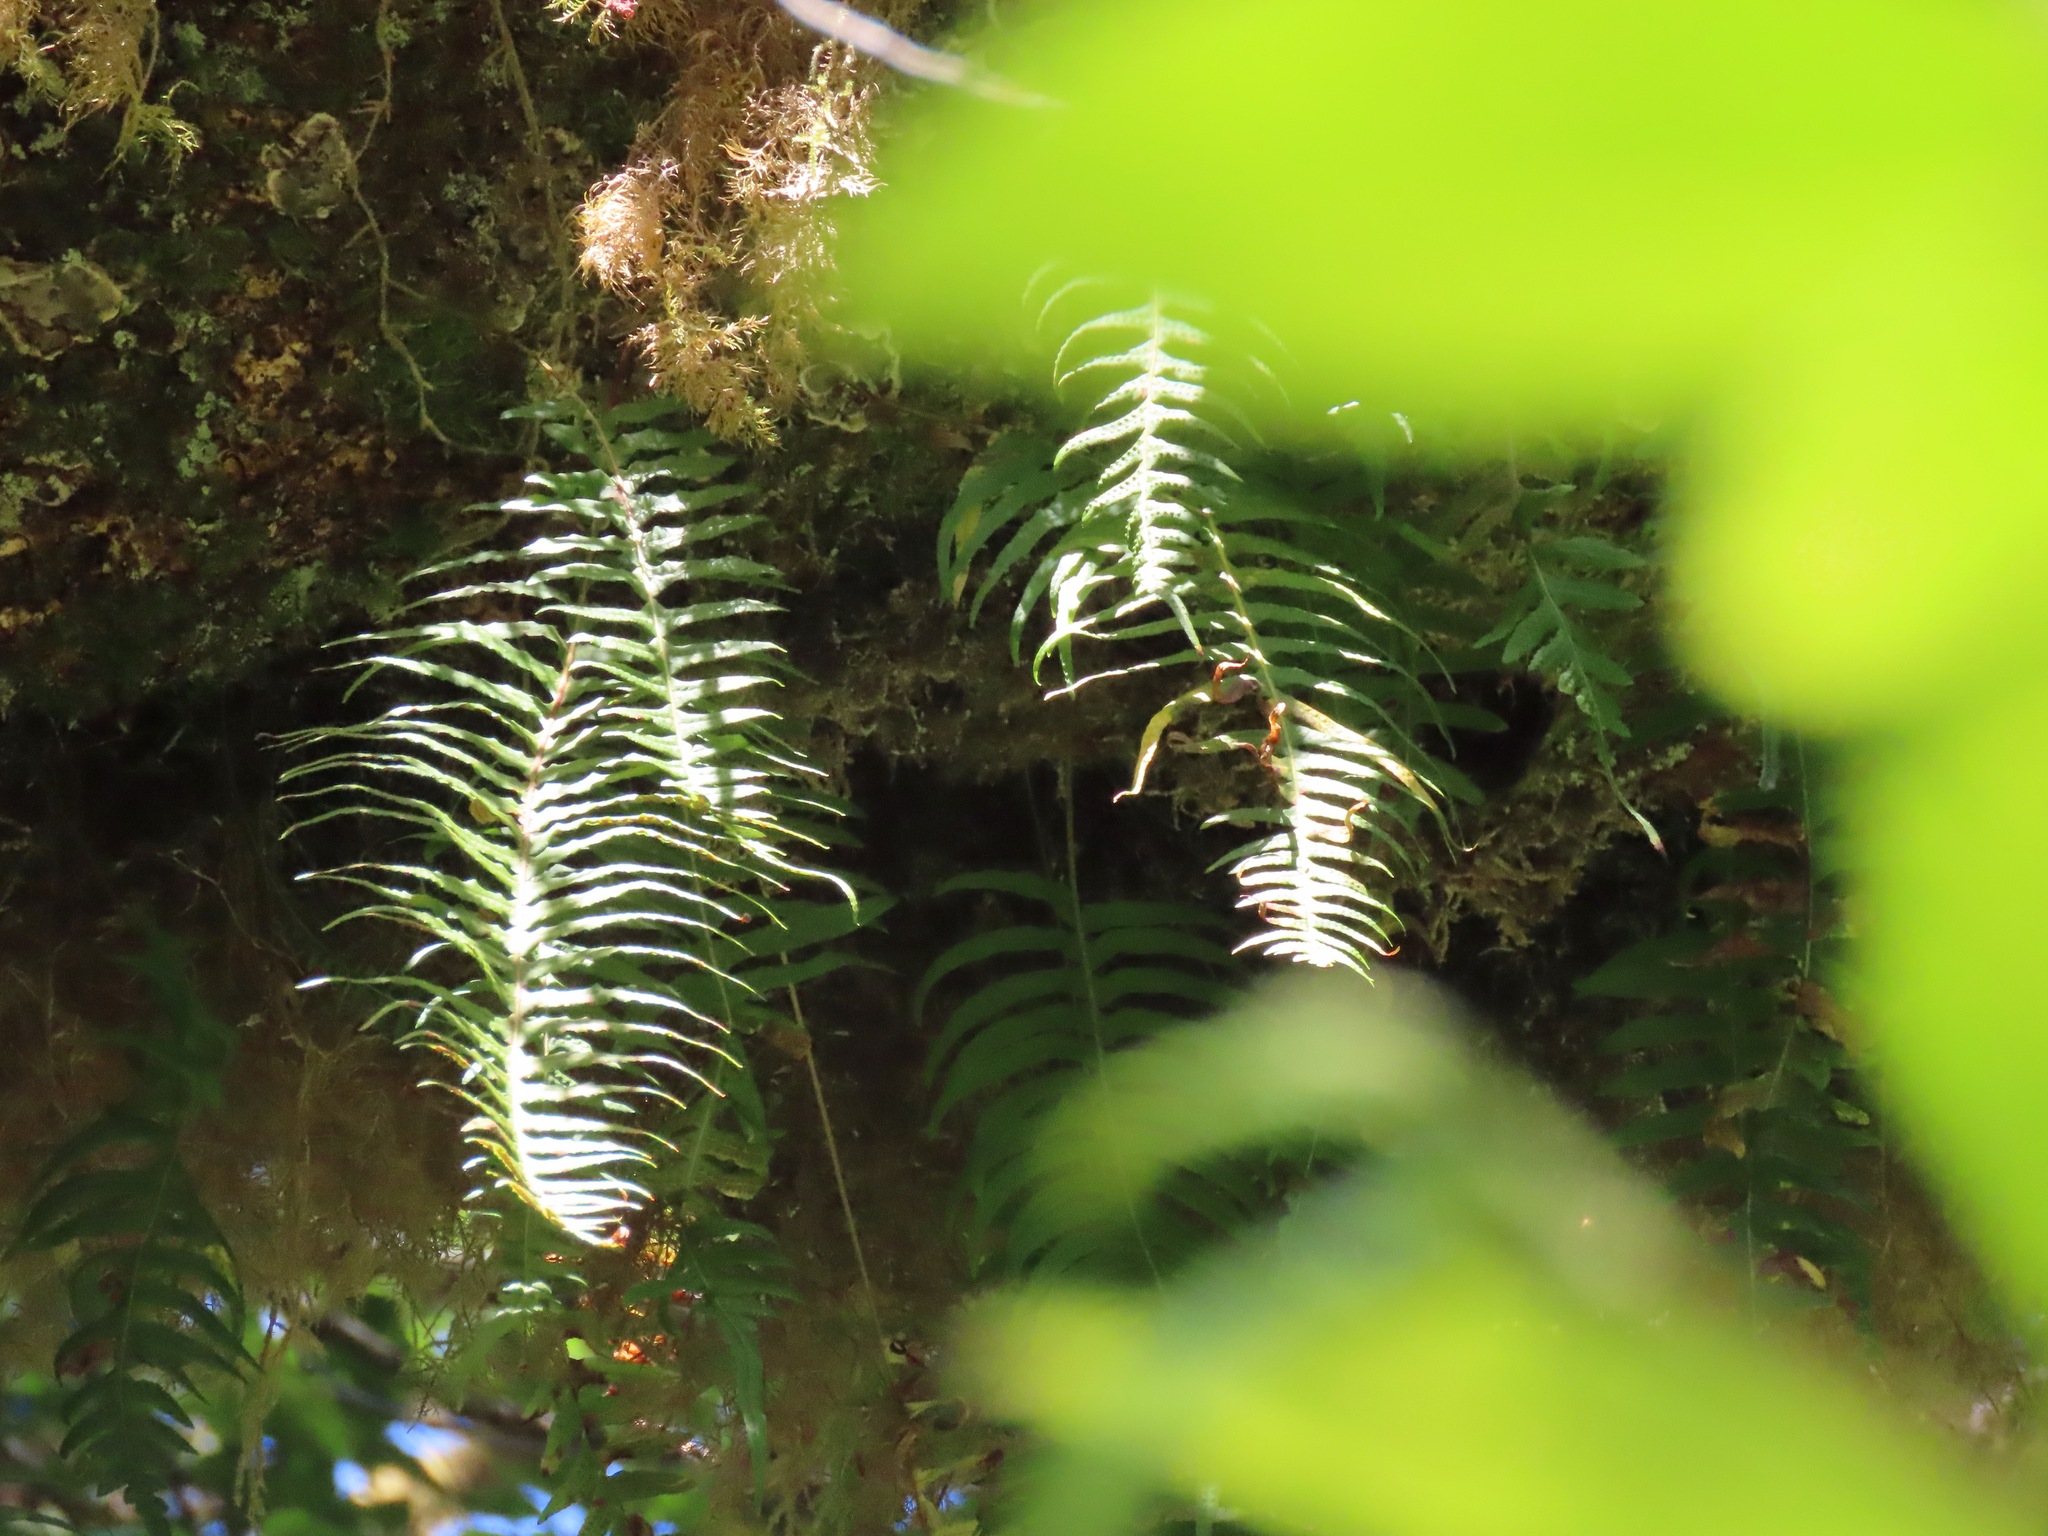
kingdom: Plantae
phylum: Tracheophyta
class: Polypodiopsida
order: Polypodiales
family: Polypodiaceae
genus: Polypodium
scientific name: Polypodium glycyrrhiza
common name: Licorice fern
